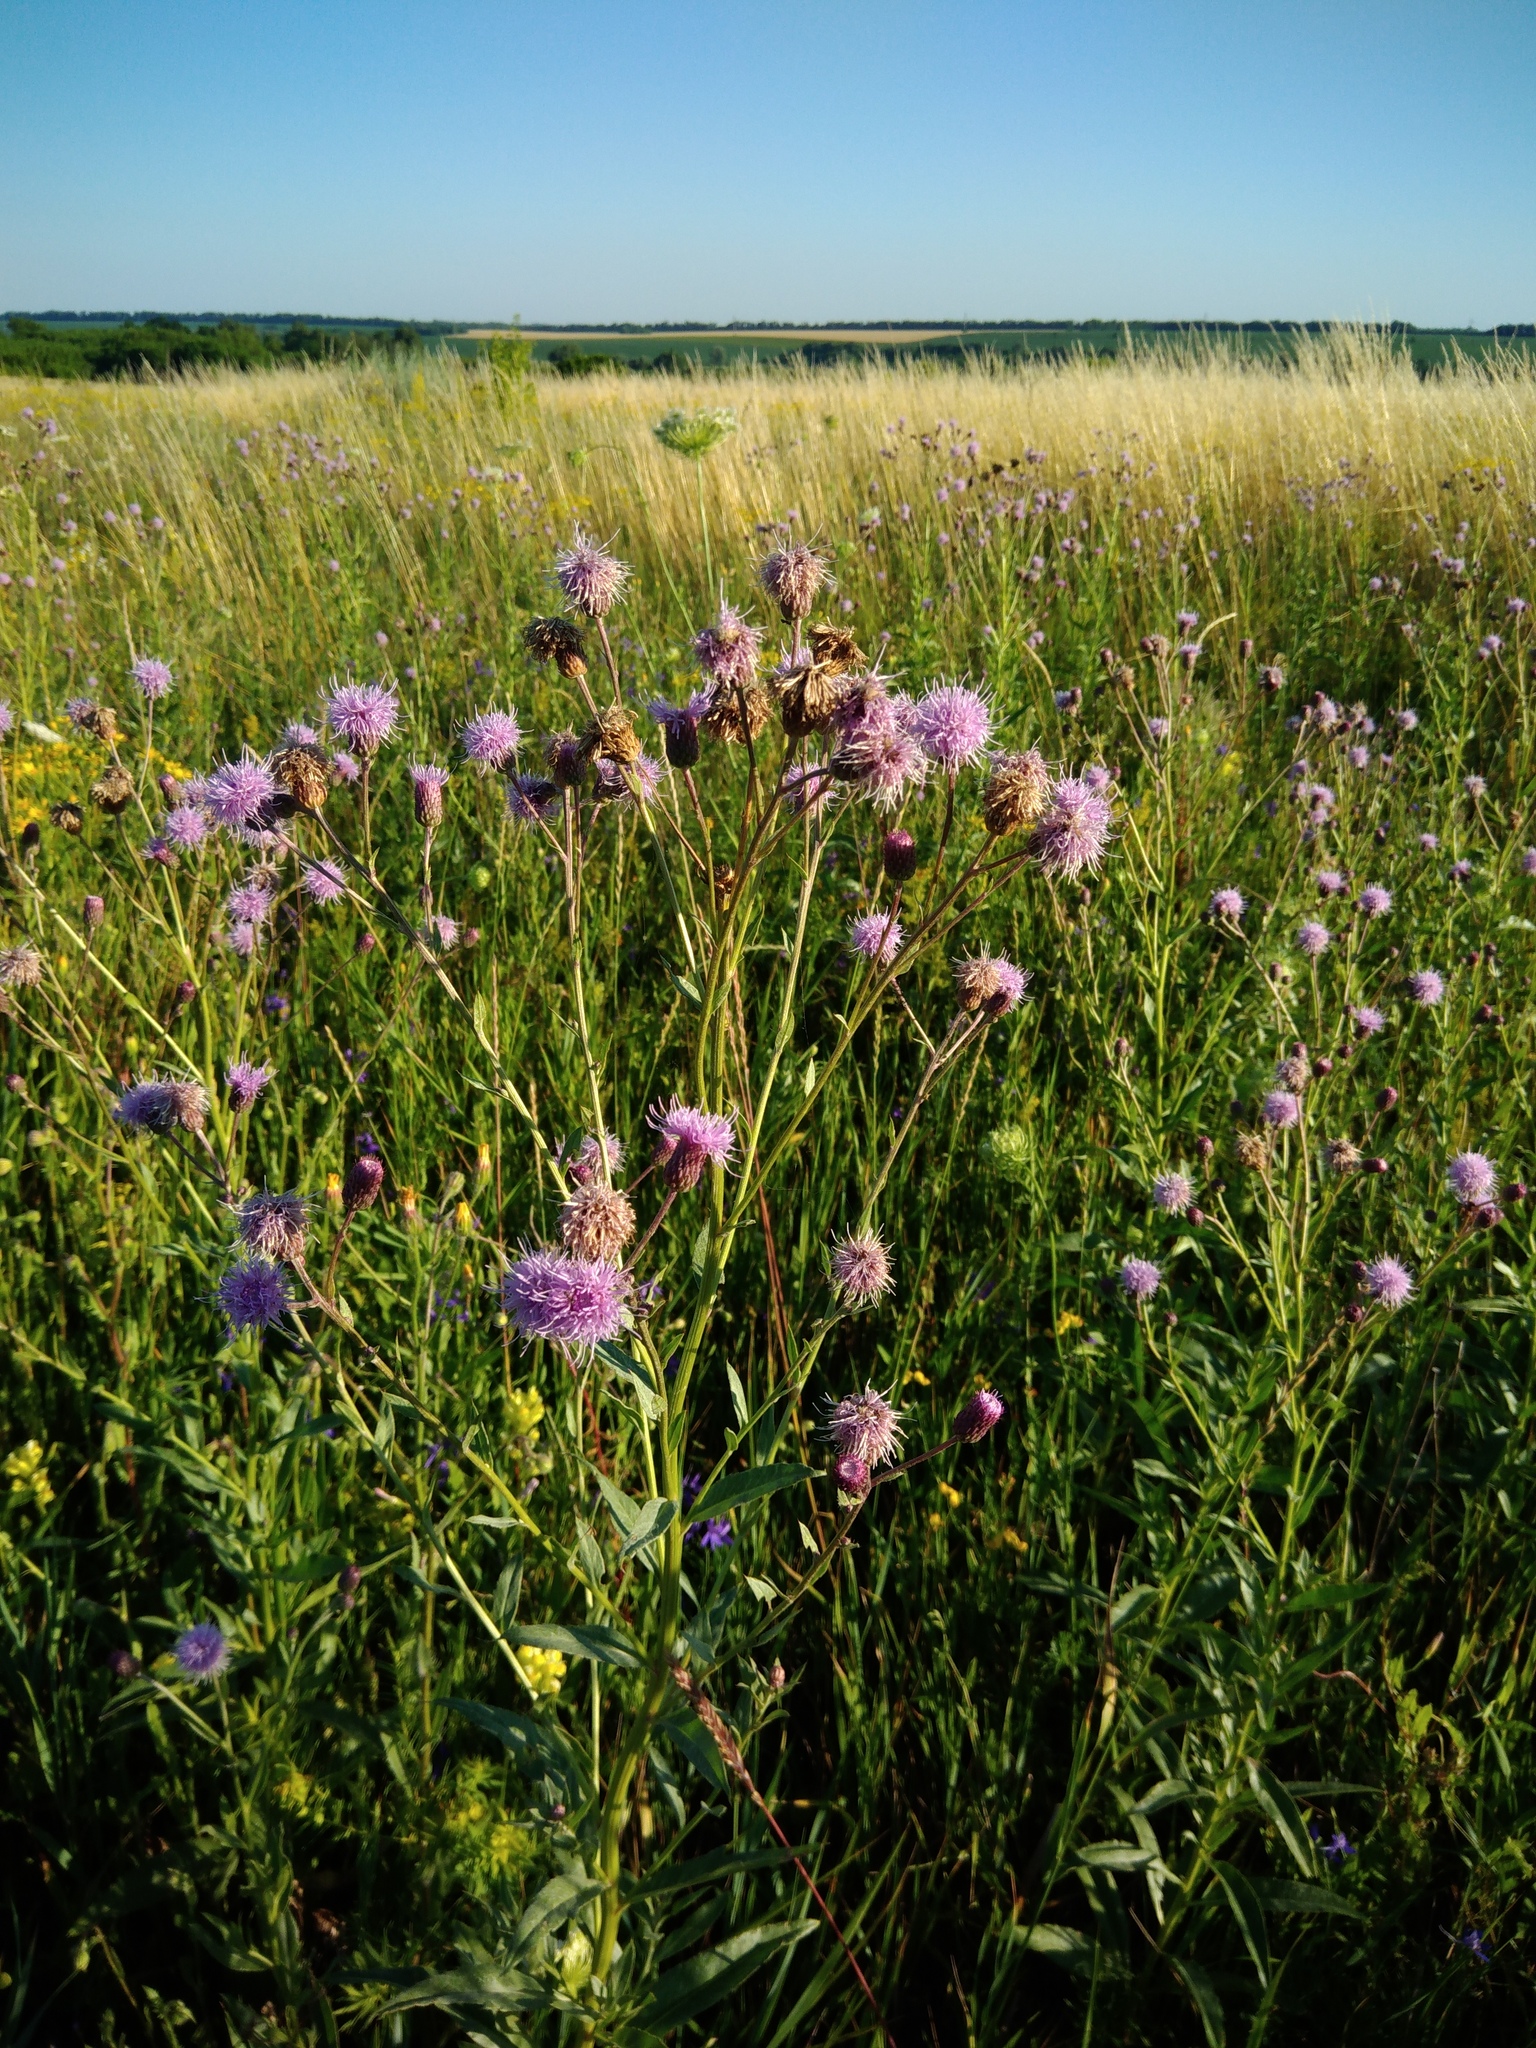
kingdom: Plantae
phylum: Tracheophyta
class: Magnoliopsida
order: Asterales
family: Asteraceae
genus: Cirsium
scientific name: Cirsium arvense
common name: Creeping thistle
